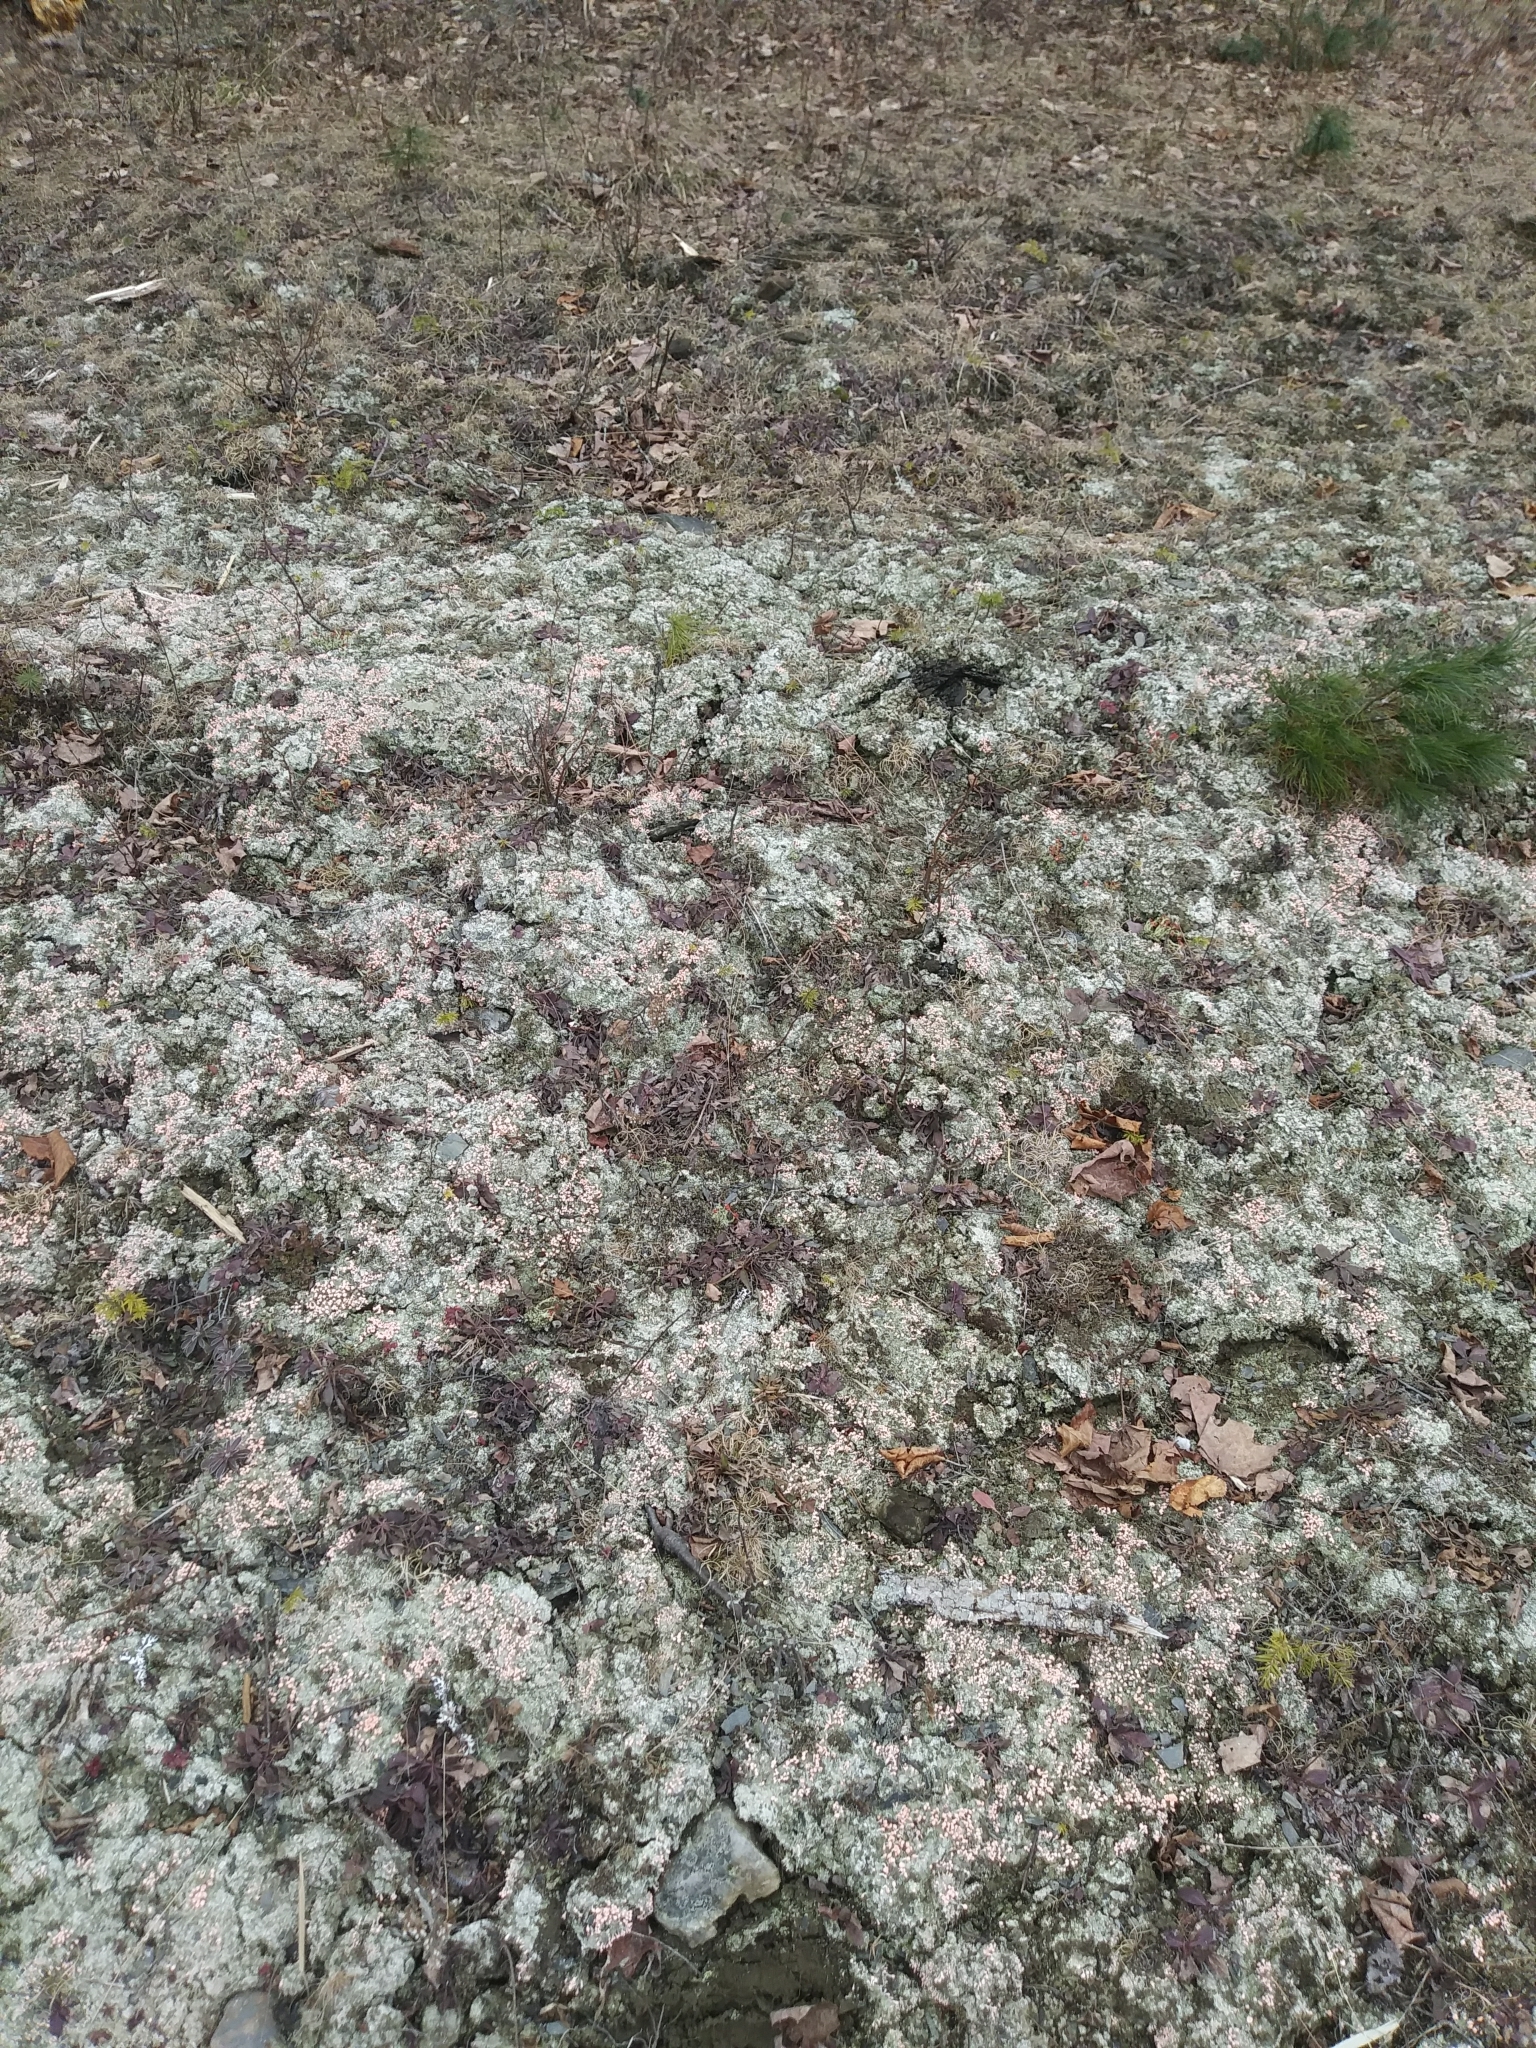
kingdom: Fungi
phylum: Ascomycota
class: Lecanoromycetes
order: Pertusariales
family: Icmadophilaceae
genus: Dibaeis
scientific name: Dibaeis baeomyces
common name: Pink earth lichen
